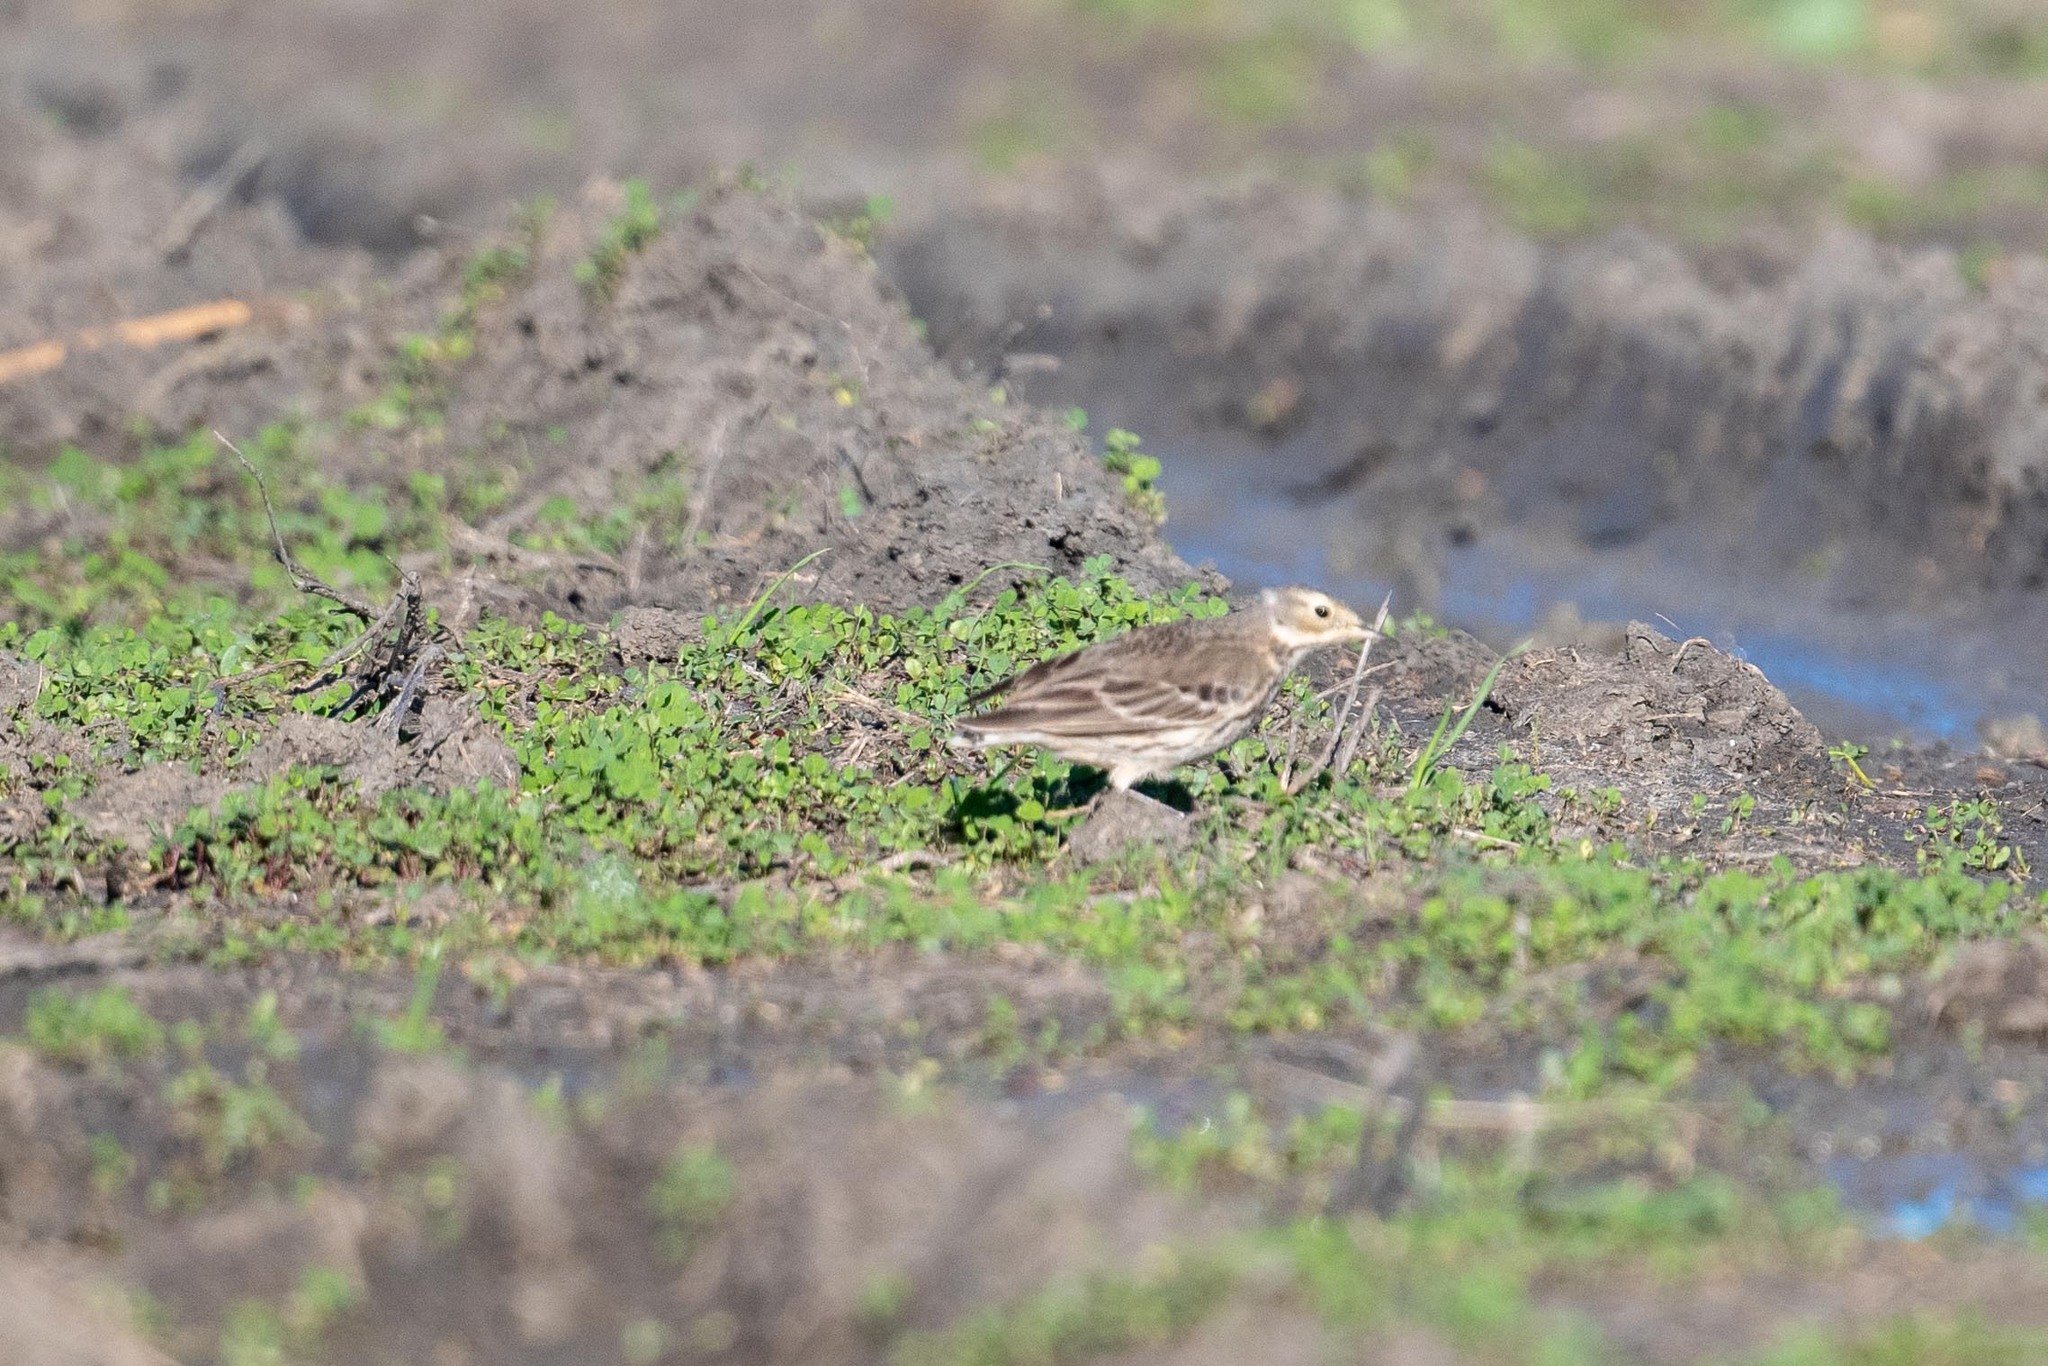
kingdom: Animalia
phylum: Chordata
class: Aves
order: Passeriformes
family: Motacillidae
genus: Anthus
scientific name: Anthus rubescens
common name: Buff-bellied pipit
